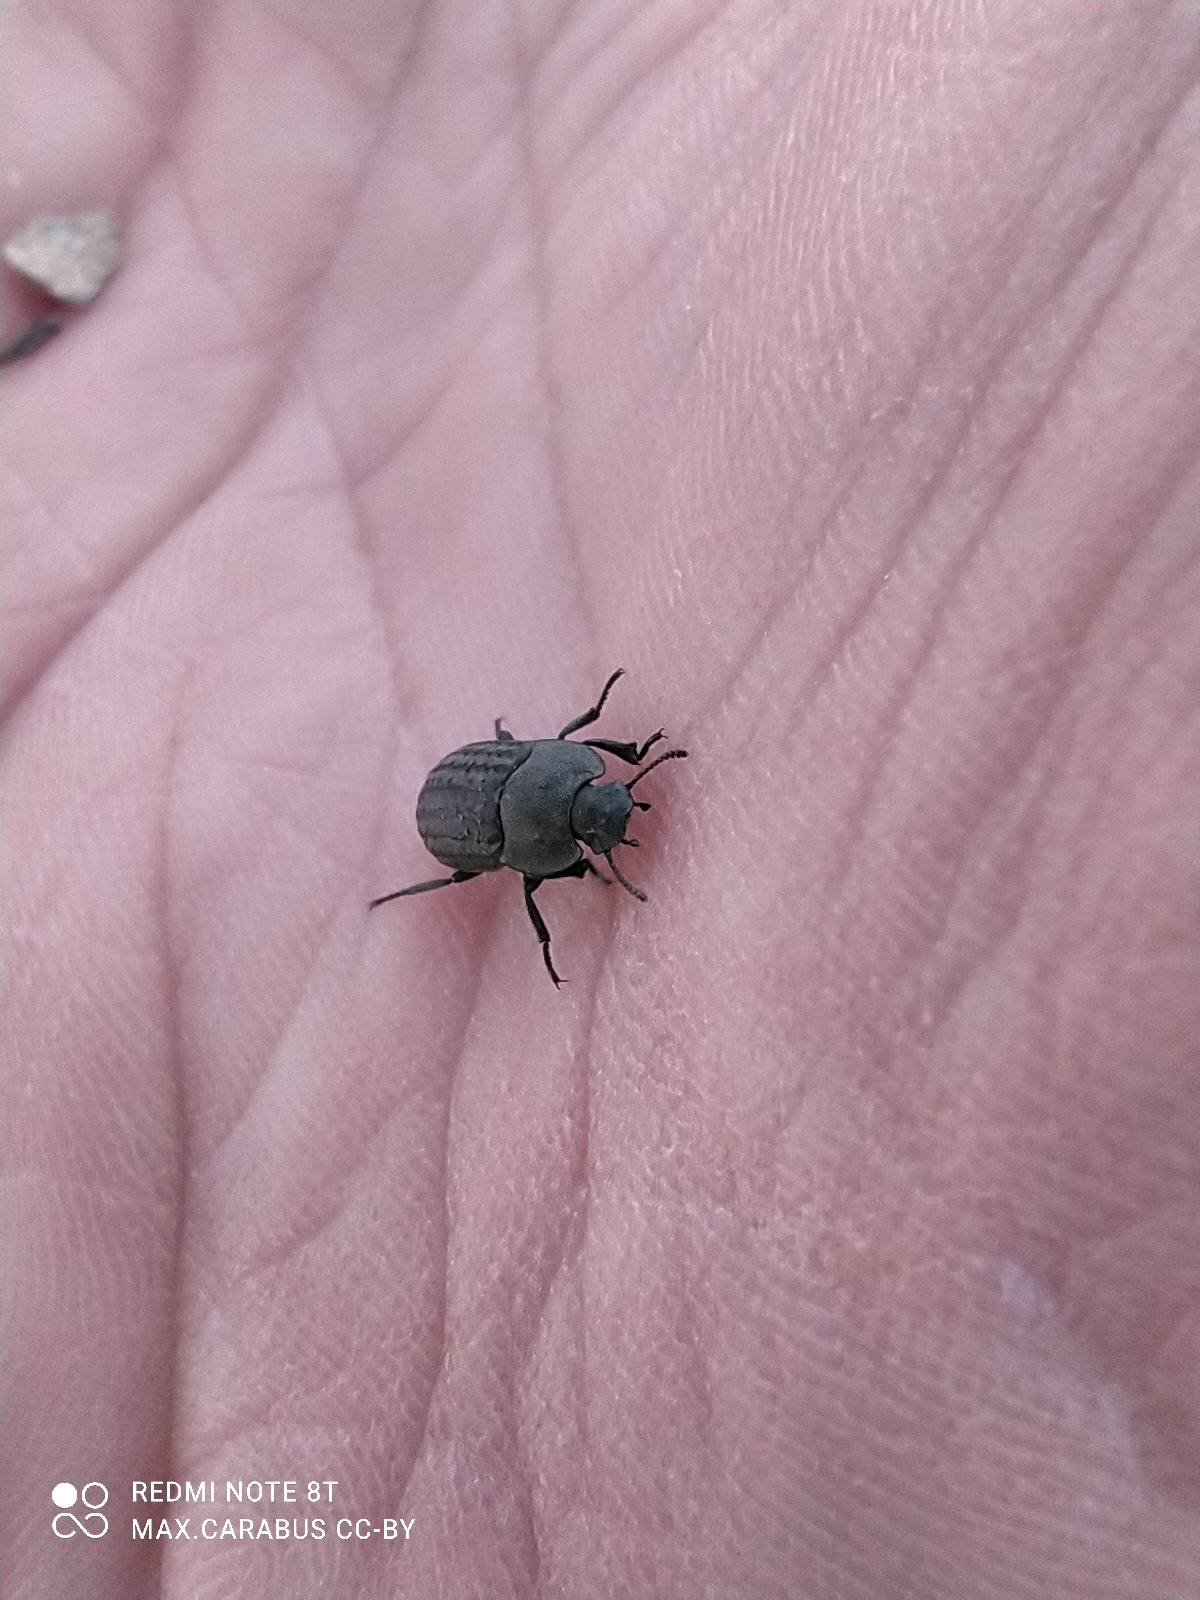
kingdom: Animalia
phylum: Arthropoda
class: Insecta
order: Coleoptera
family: Tenebrionidae
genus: Opatrum
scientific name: Opatrum sabulosum
